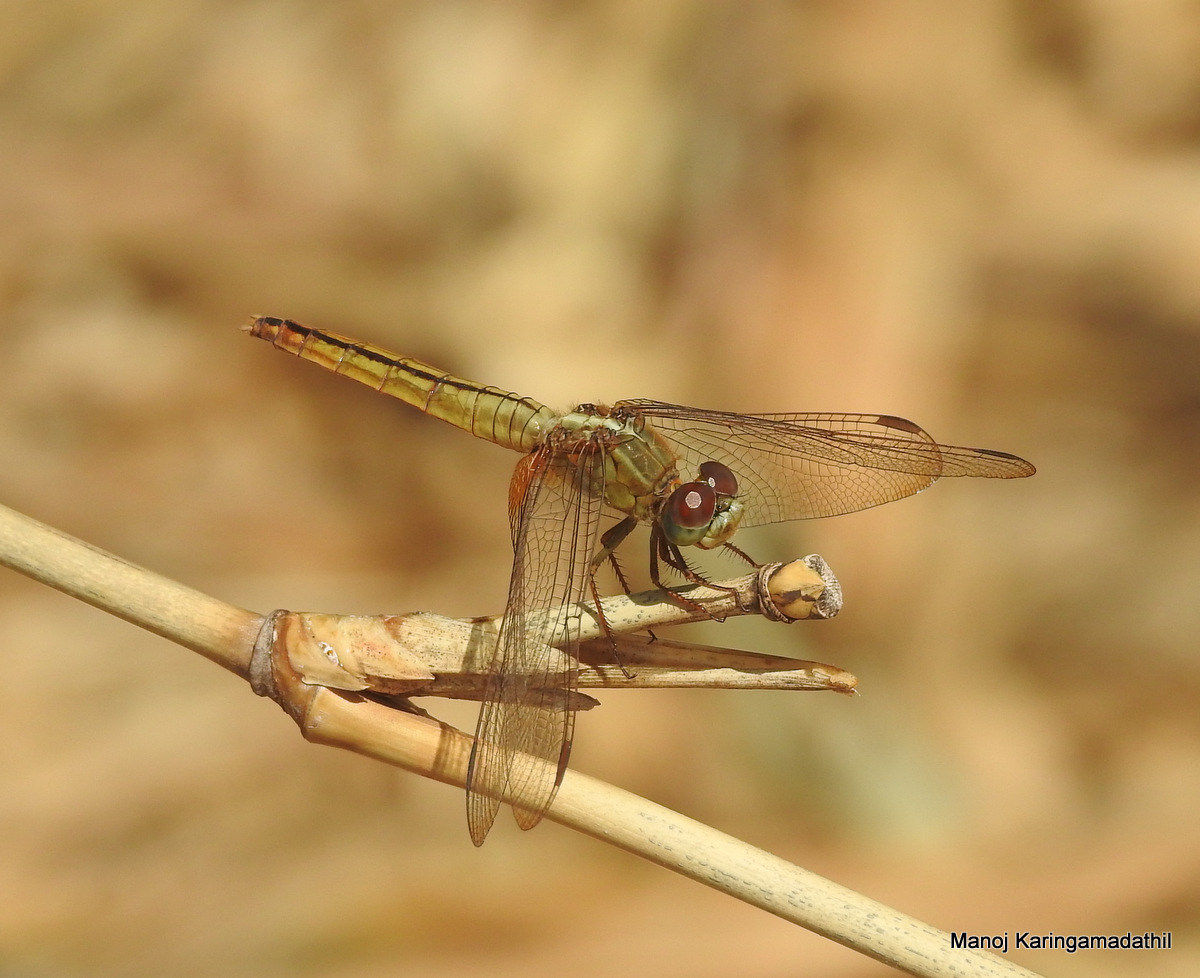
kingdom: Animalia
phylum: Arthropoda
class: Insecta
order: Odonata
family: Libellulidae
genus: Crocothemis
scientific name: Crocothemis servilia
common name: Scarlet skimmer
